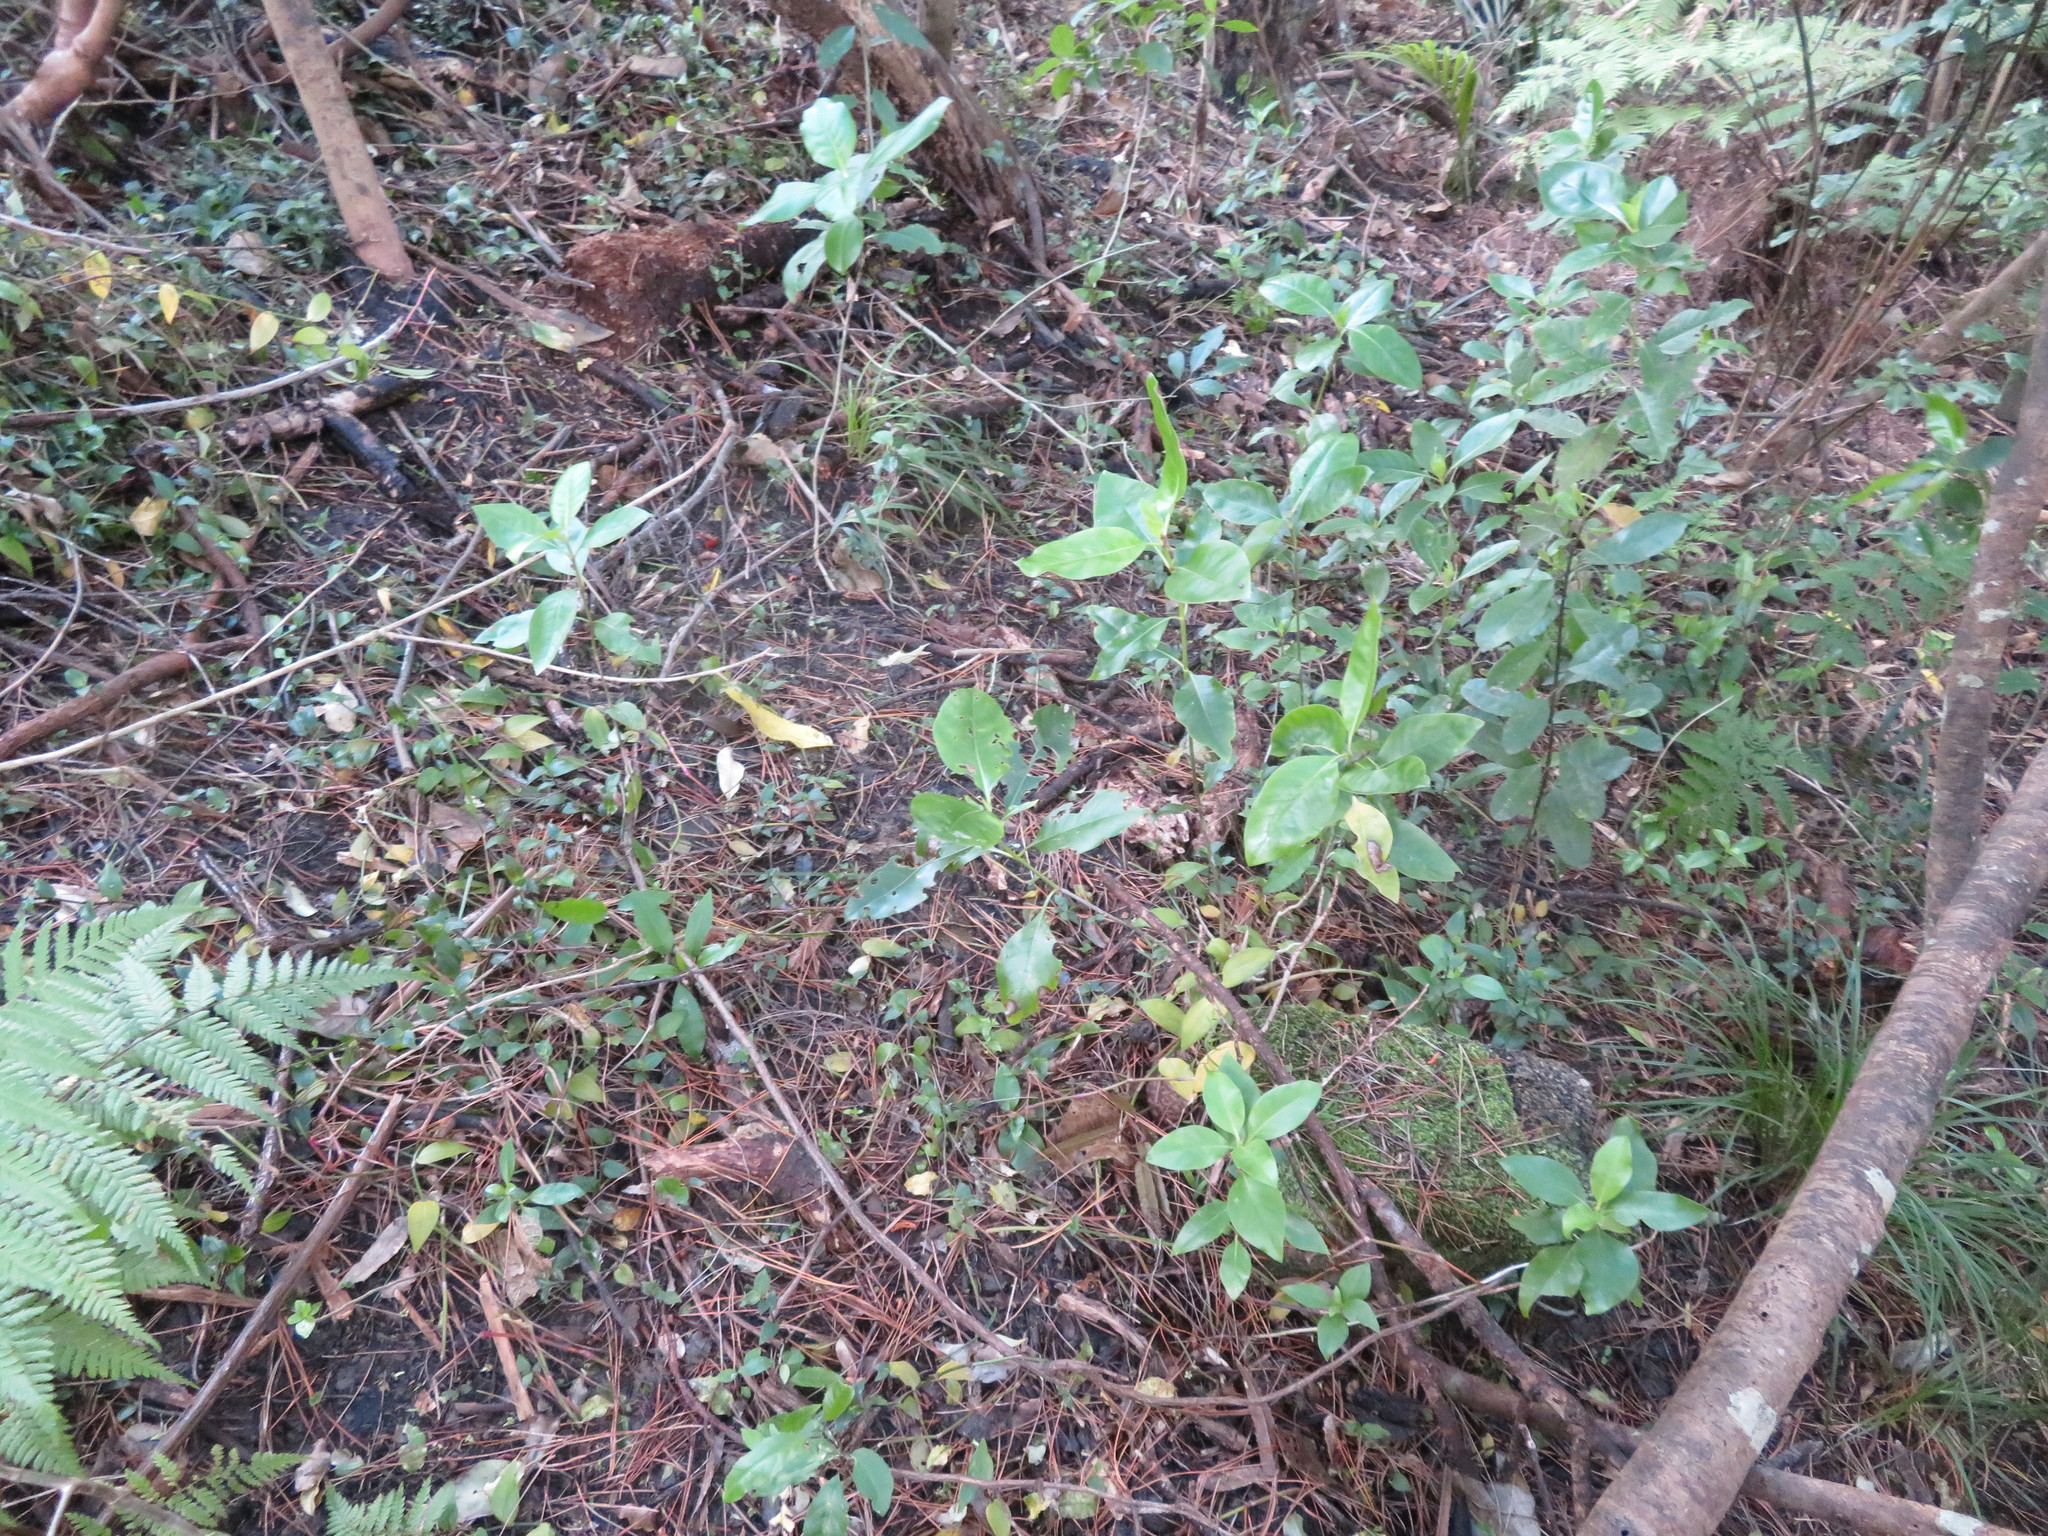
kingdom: Plantae
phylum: Tracheophyta
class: Liliopsida
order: Commelinales
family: Commelinaceae
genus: Tradescantia
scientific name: Tradescantia fluminensis
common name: Wandering-jew
